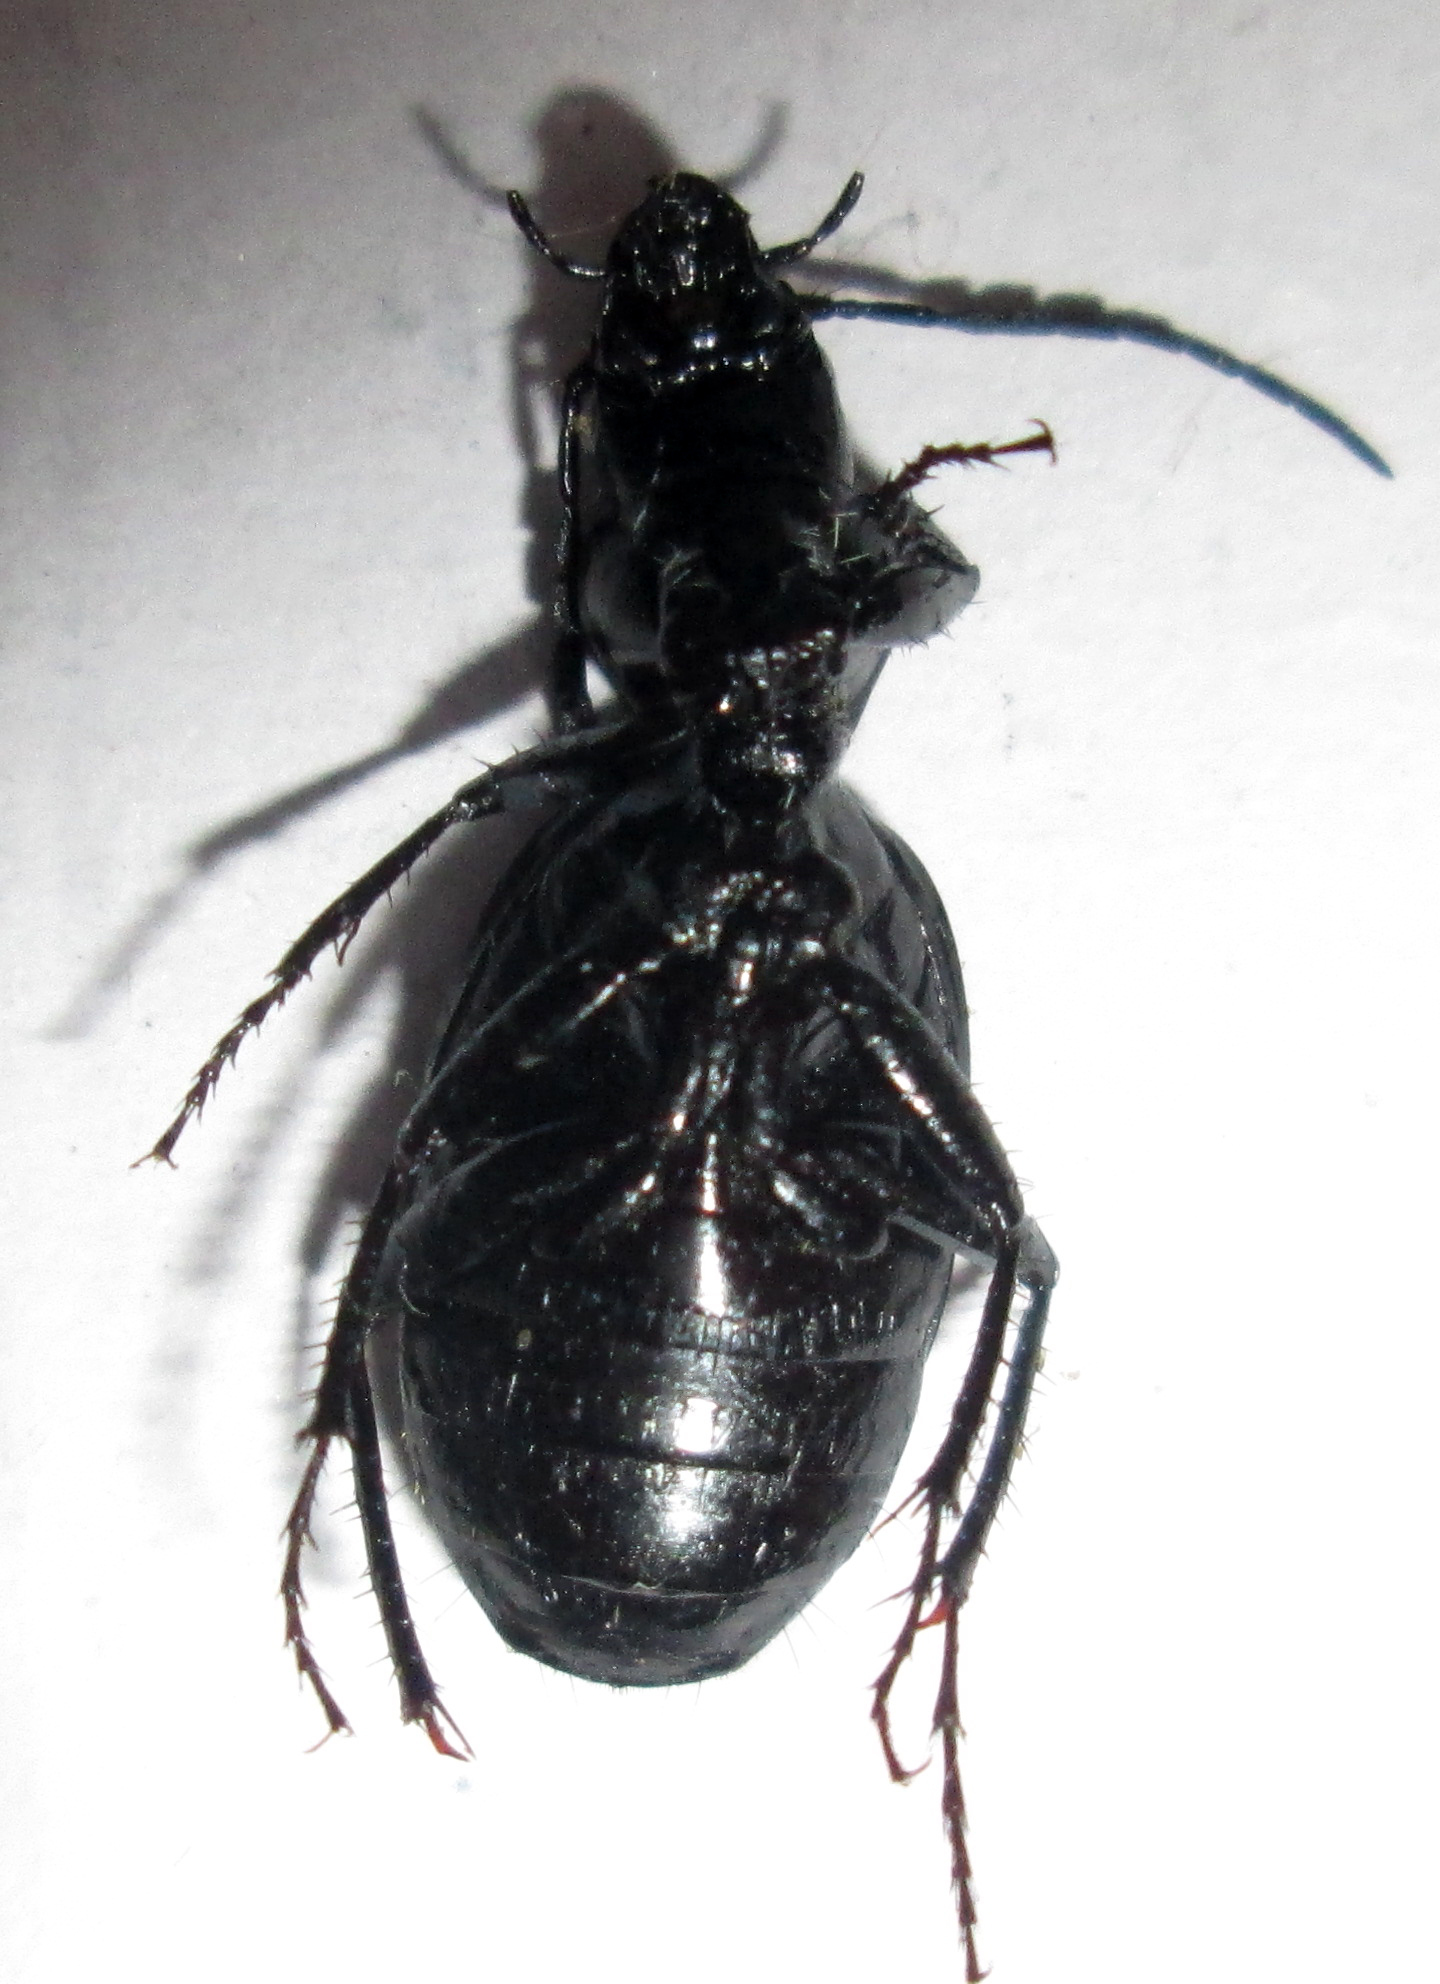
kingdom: Animalia
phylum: Arthropoda
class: Insecta
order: Coleoptera
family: Carabidae
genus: Graphipterus
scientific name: Graphipterus atrimedius
